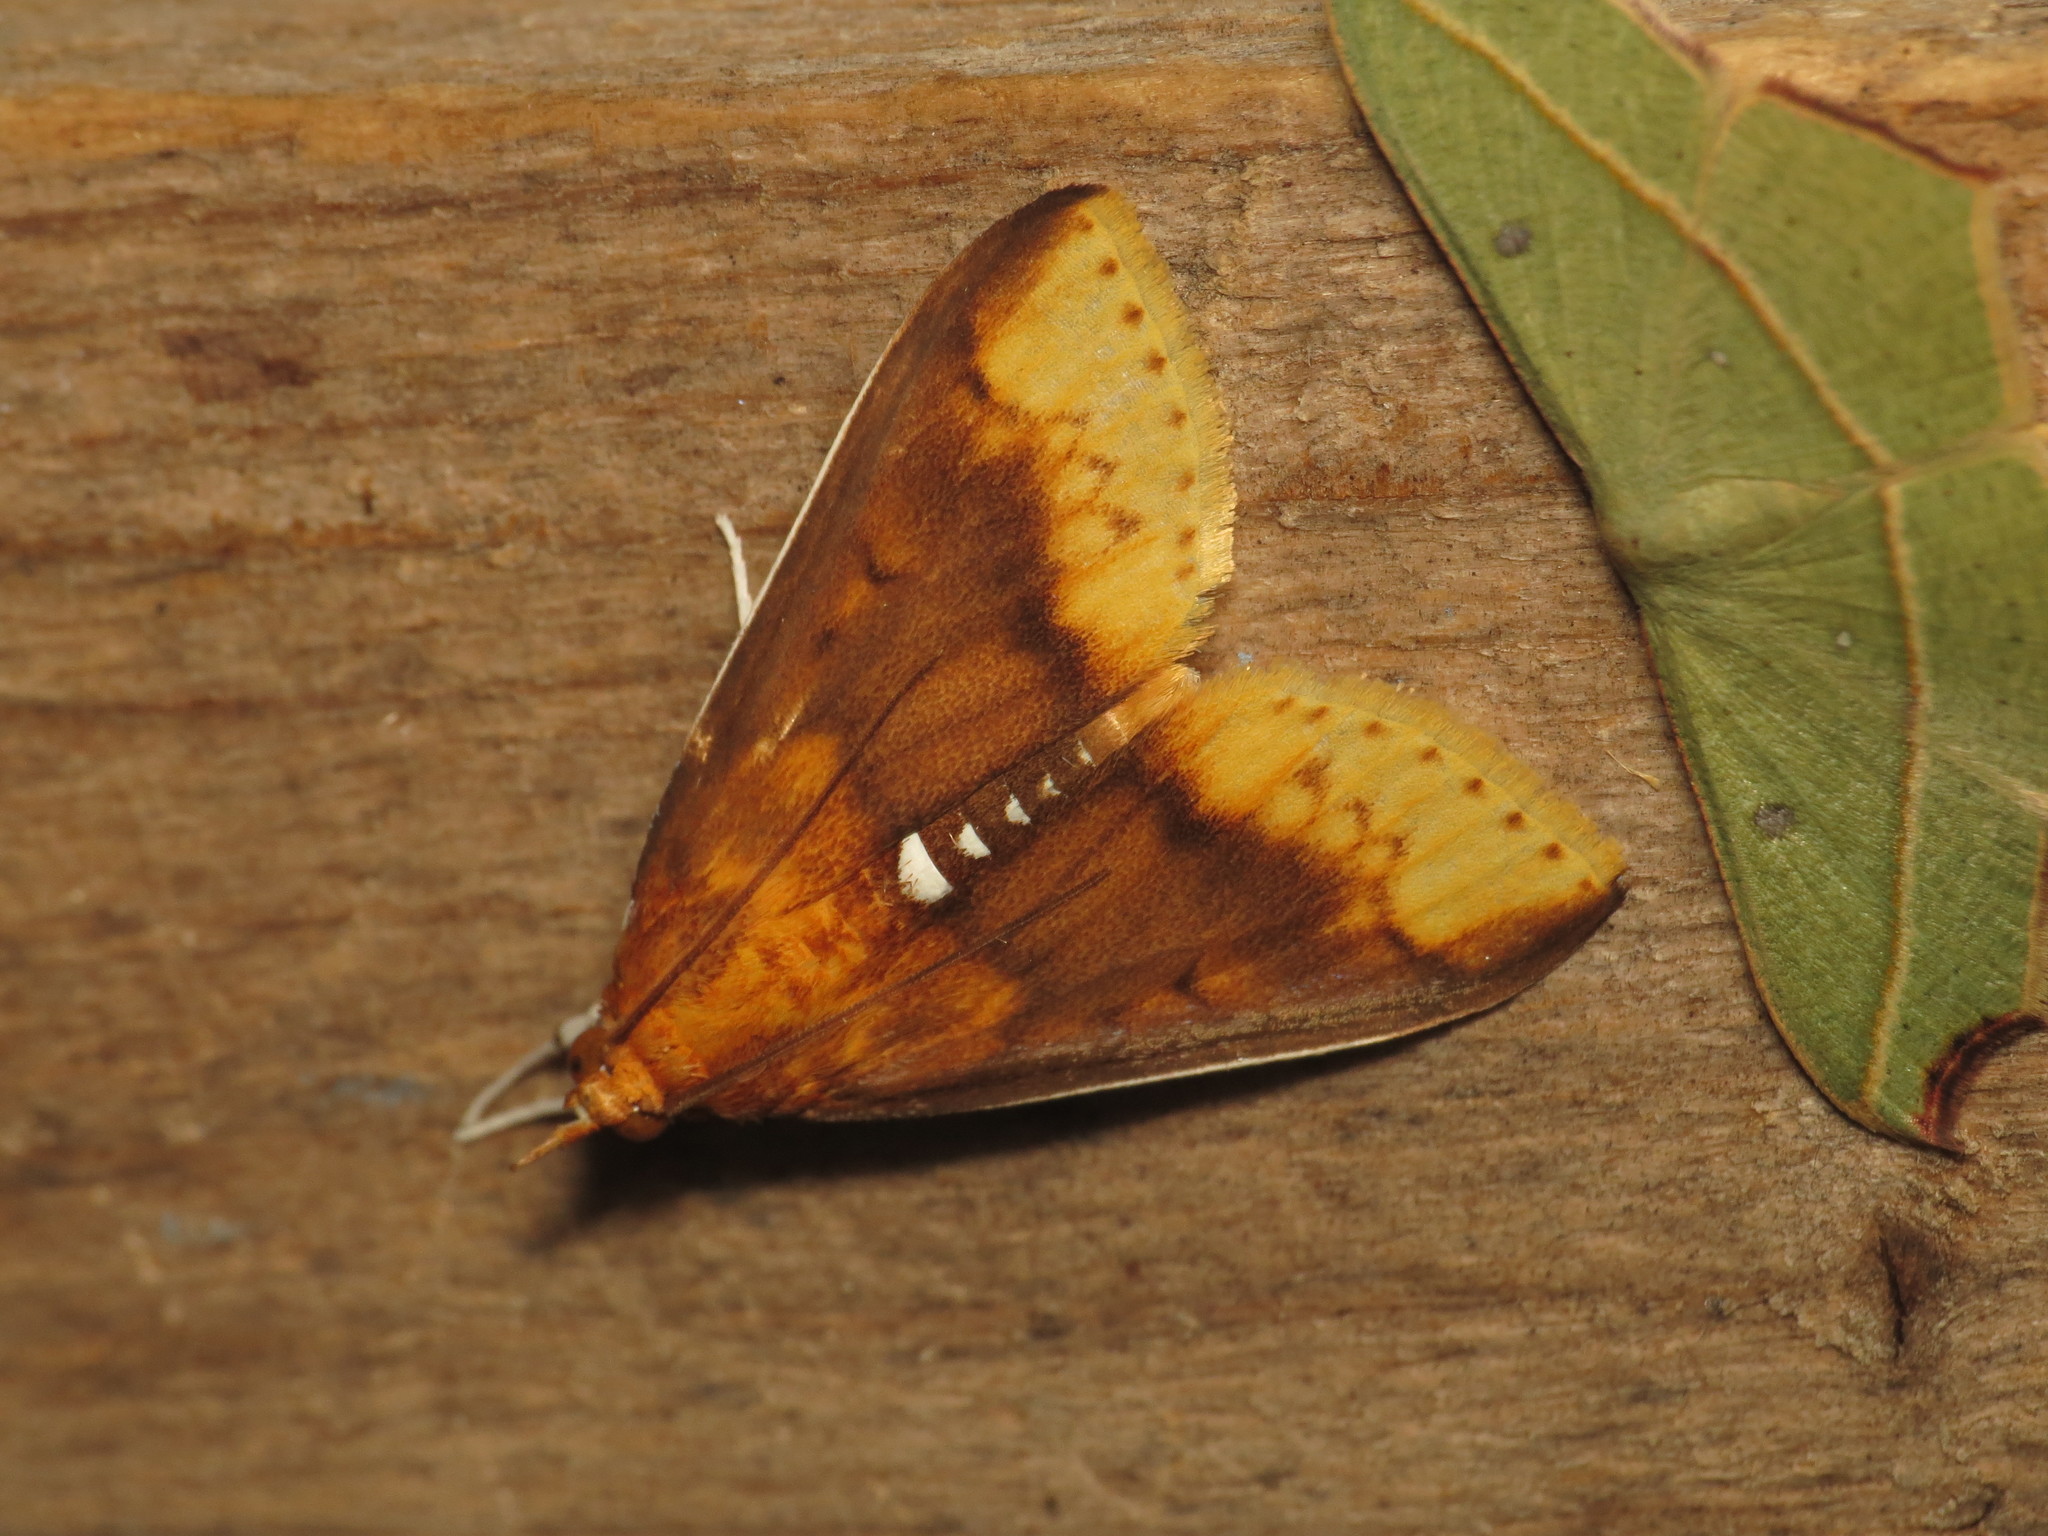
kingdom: Animalia
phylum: Arthropoda
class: Insecta
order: Lepidoptera
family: Crambidae
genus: Lipararchis
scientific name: Lipararchis tranquillalis
